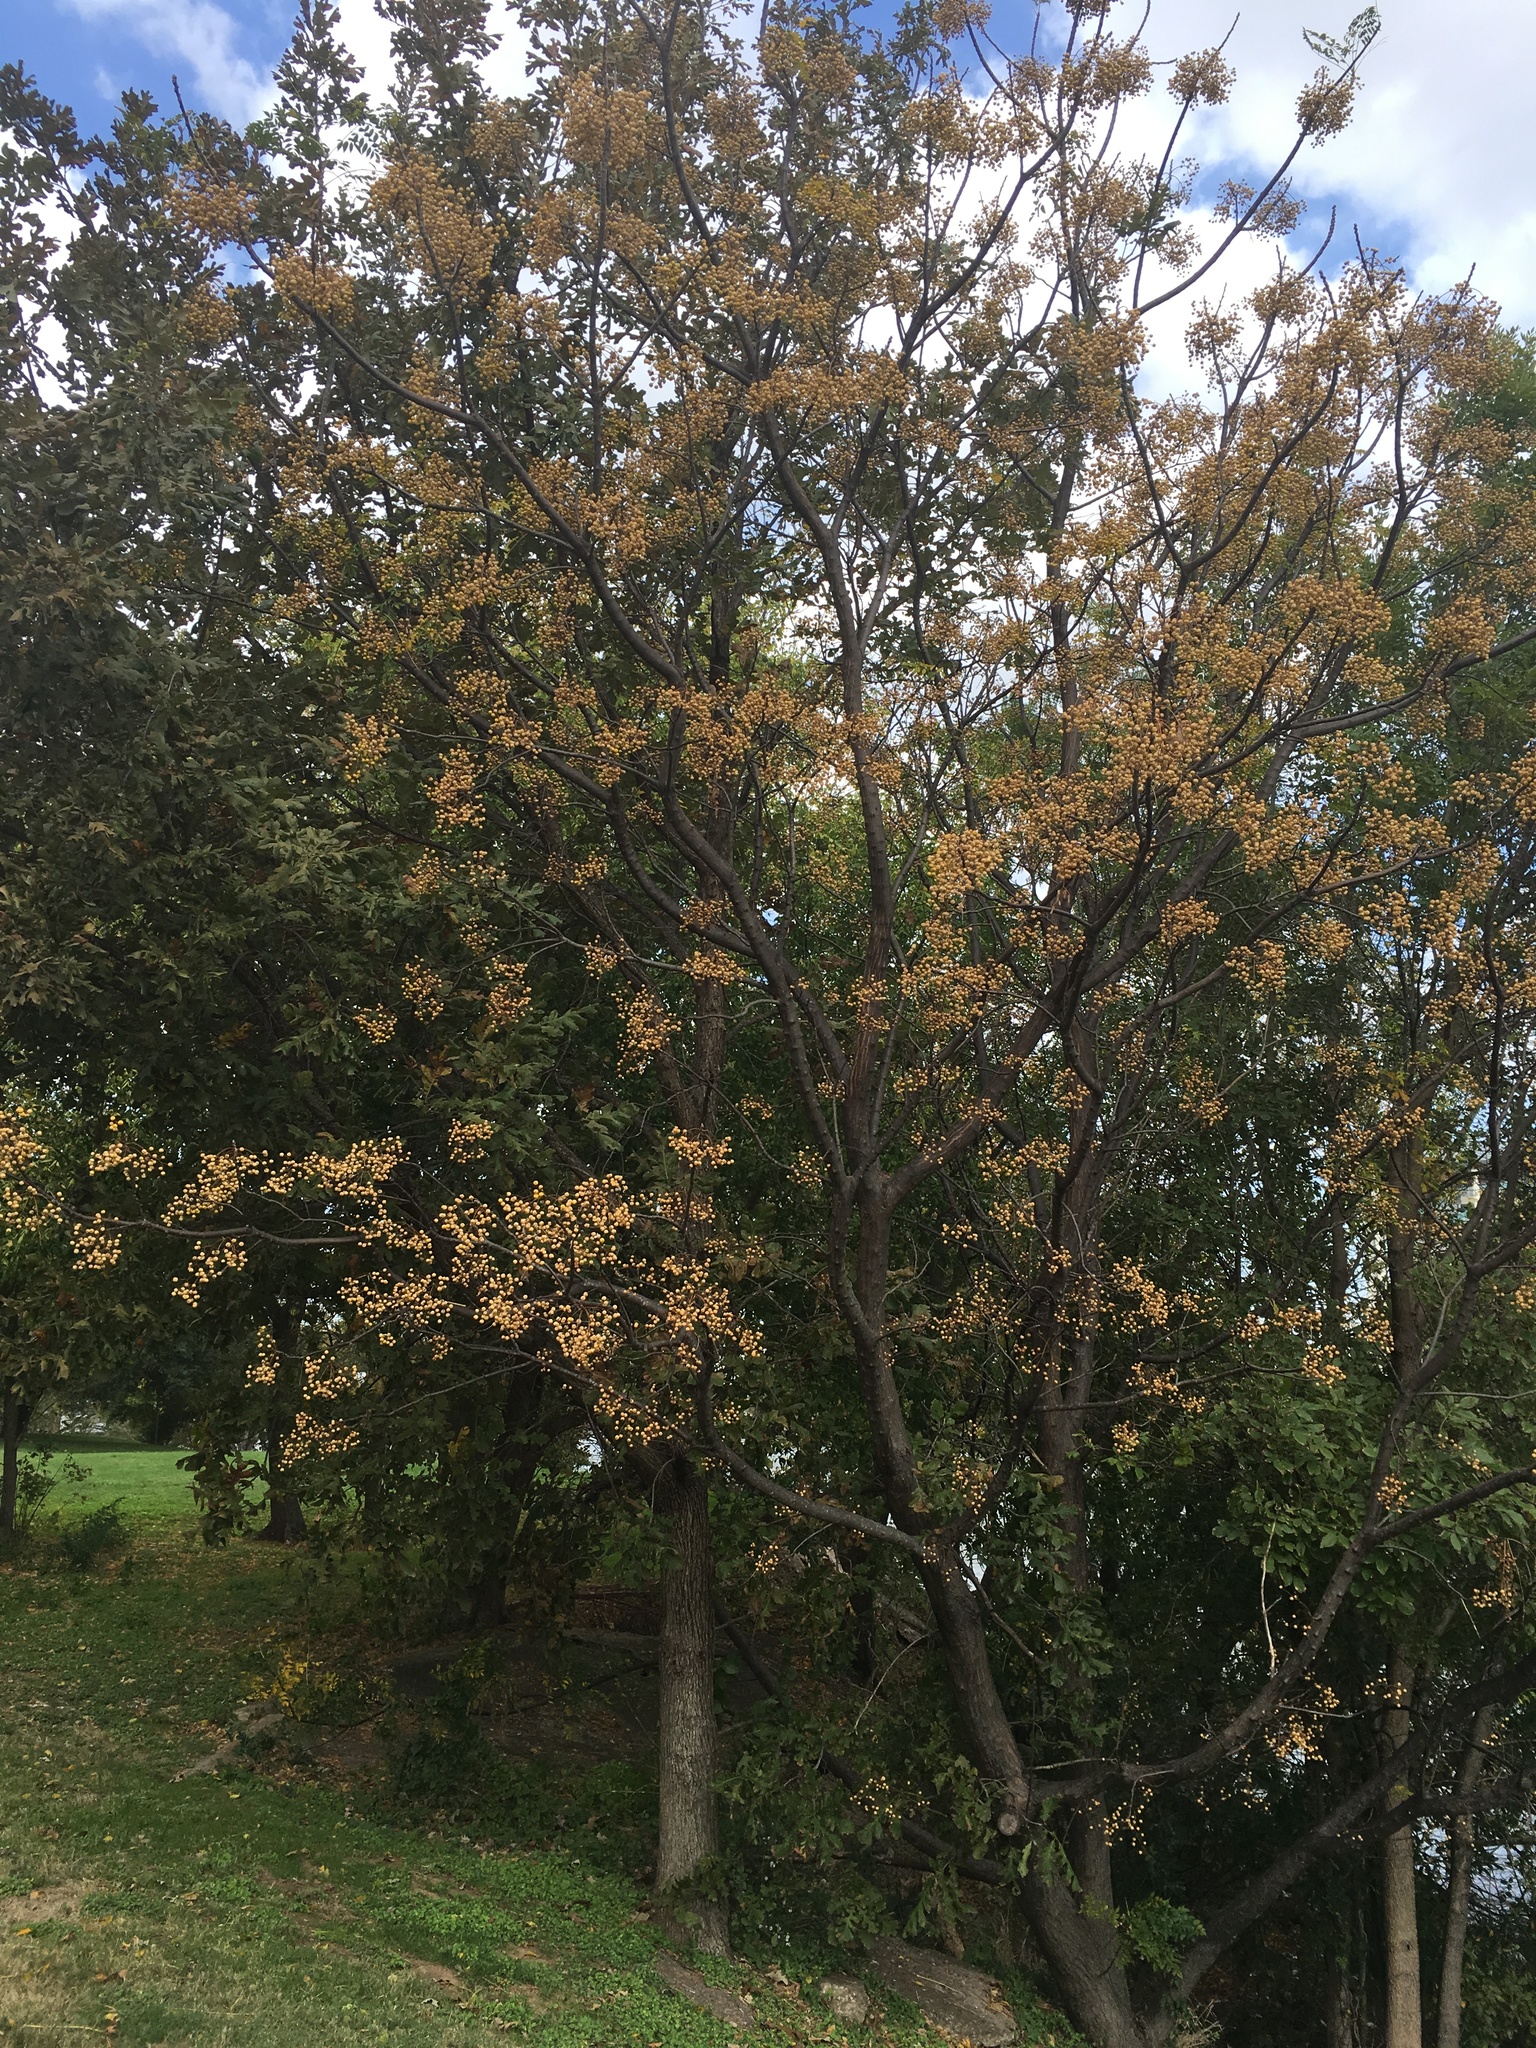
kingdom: Plantae
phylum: Tracheophyta
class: Magnoliopsida
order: Sapindales
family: Meliaceae
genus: Melia
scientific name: Melia azedarach
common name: Chinaberrytree
